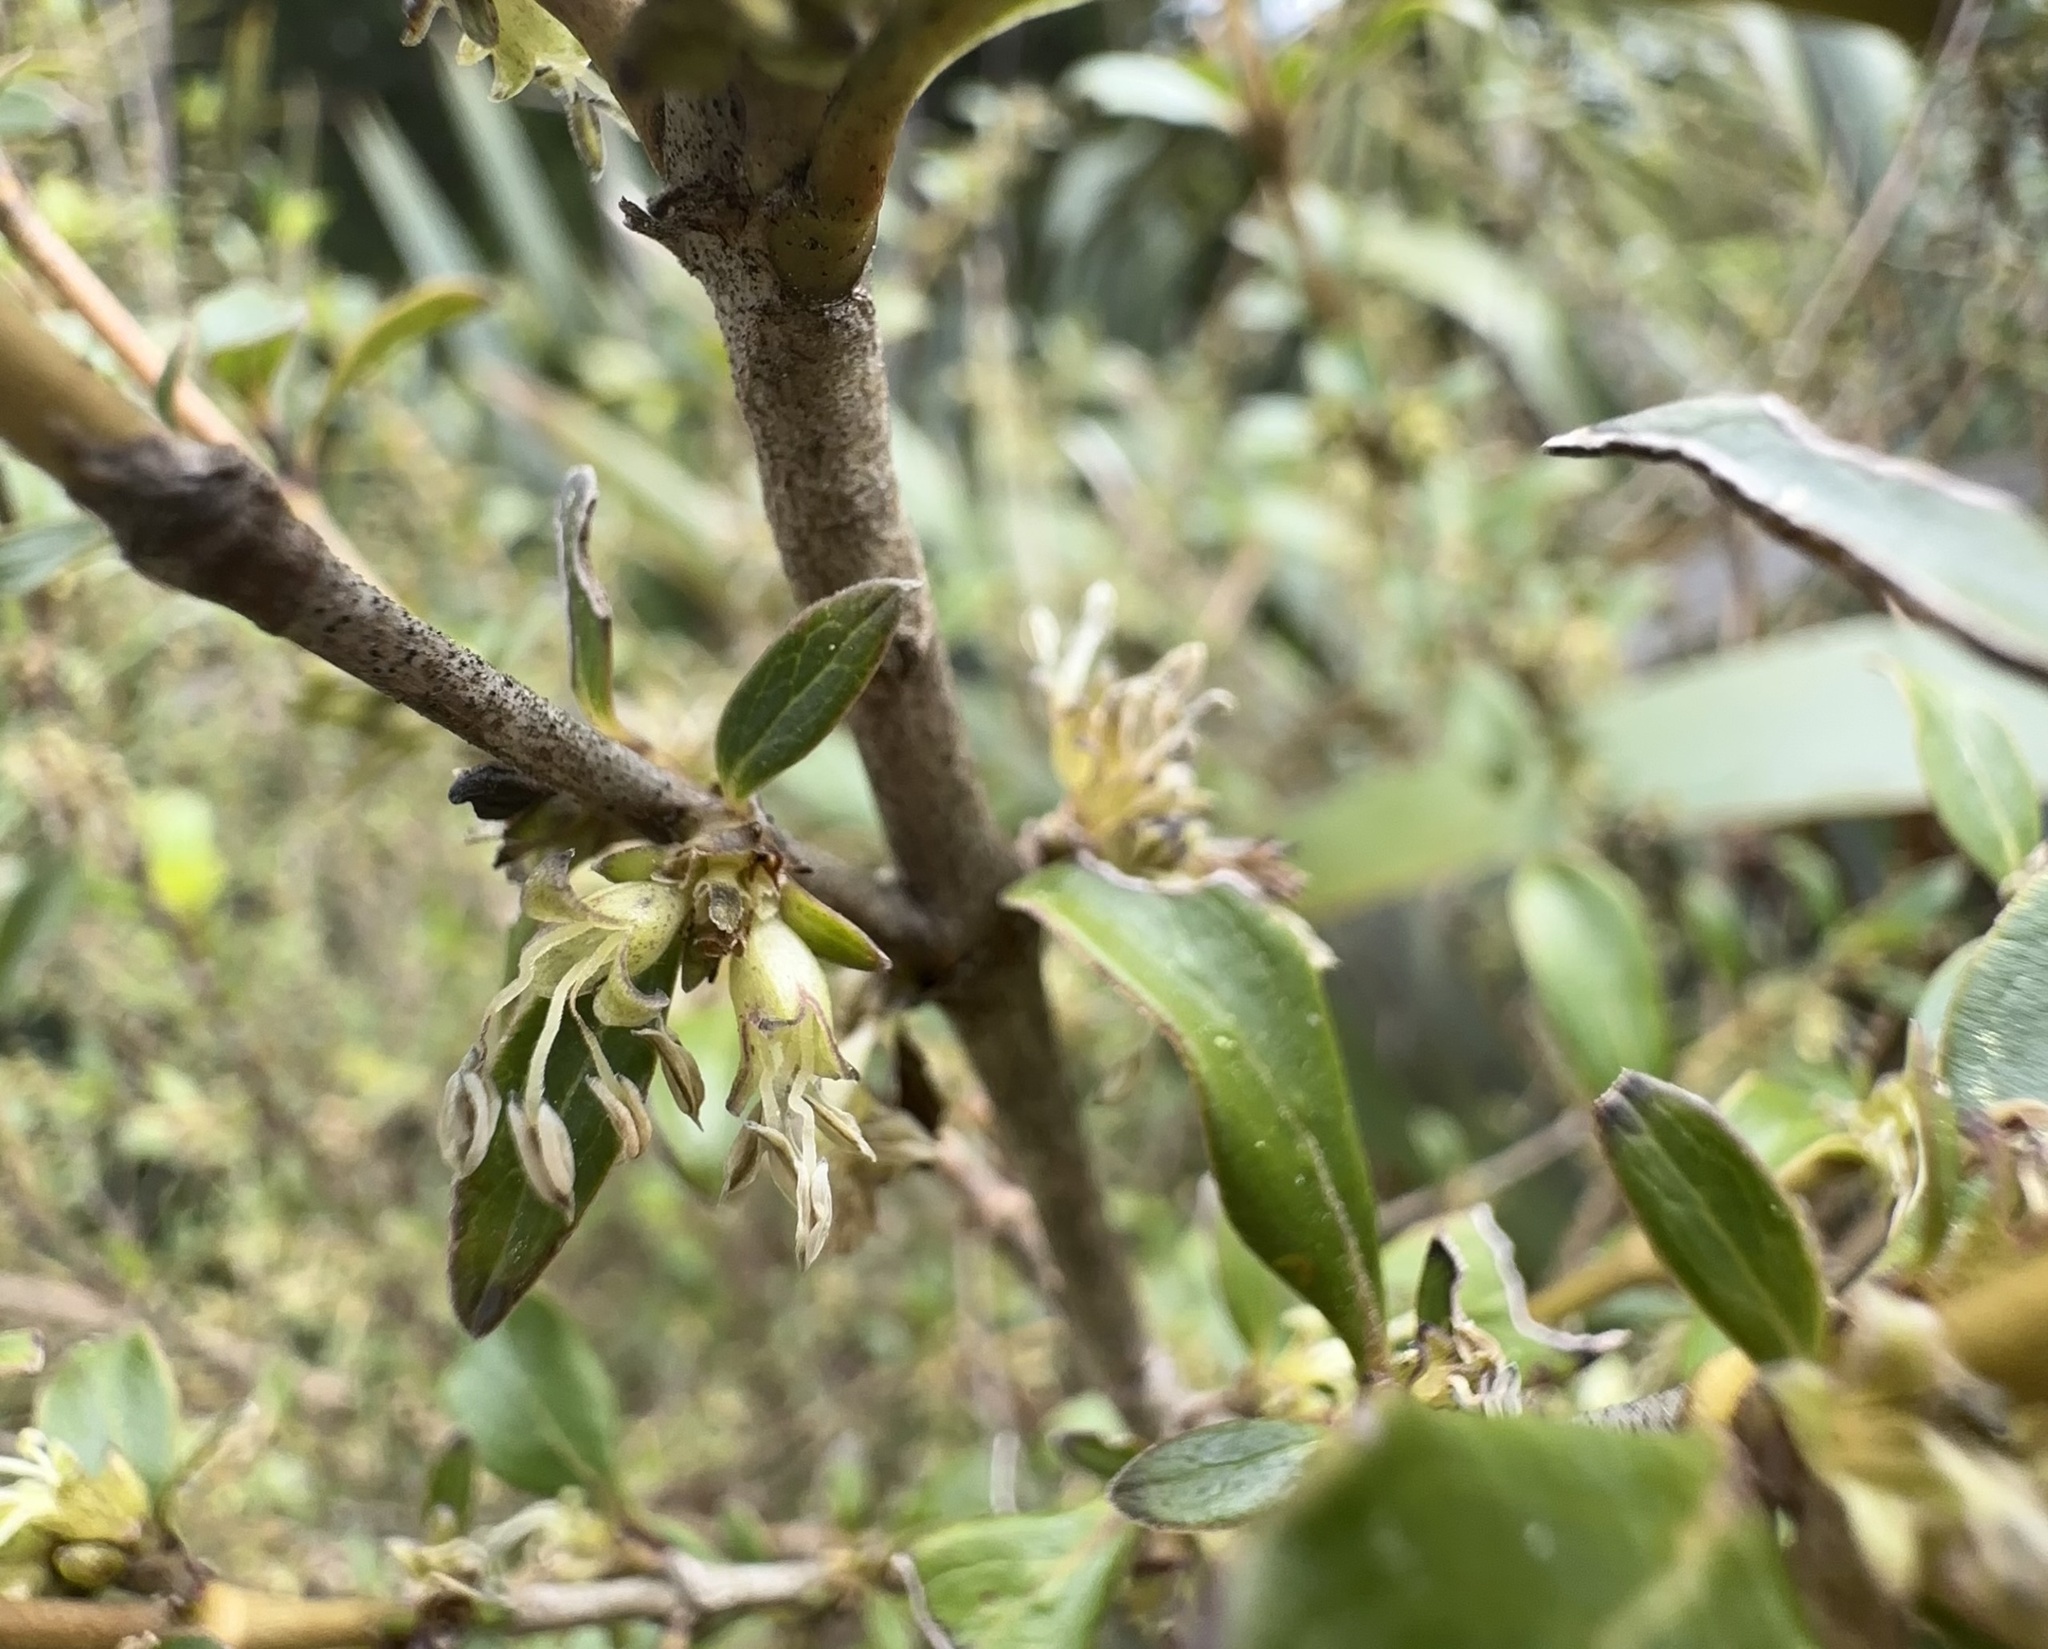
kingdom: Plantae
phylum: Tracheophyta
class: Magnoliopsida
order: Gentianales
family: Rubiaceae
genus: Coprosma
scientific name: Coprosma robusta
